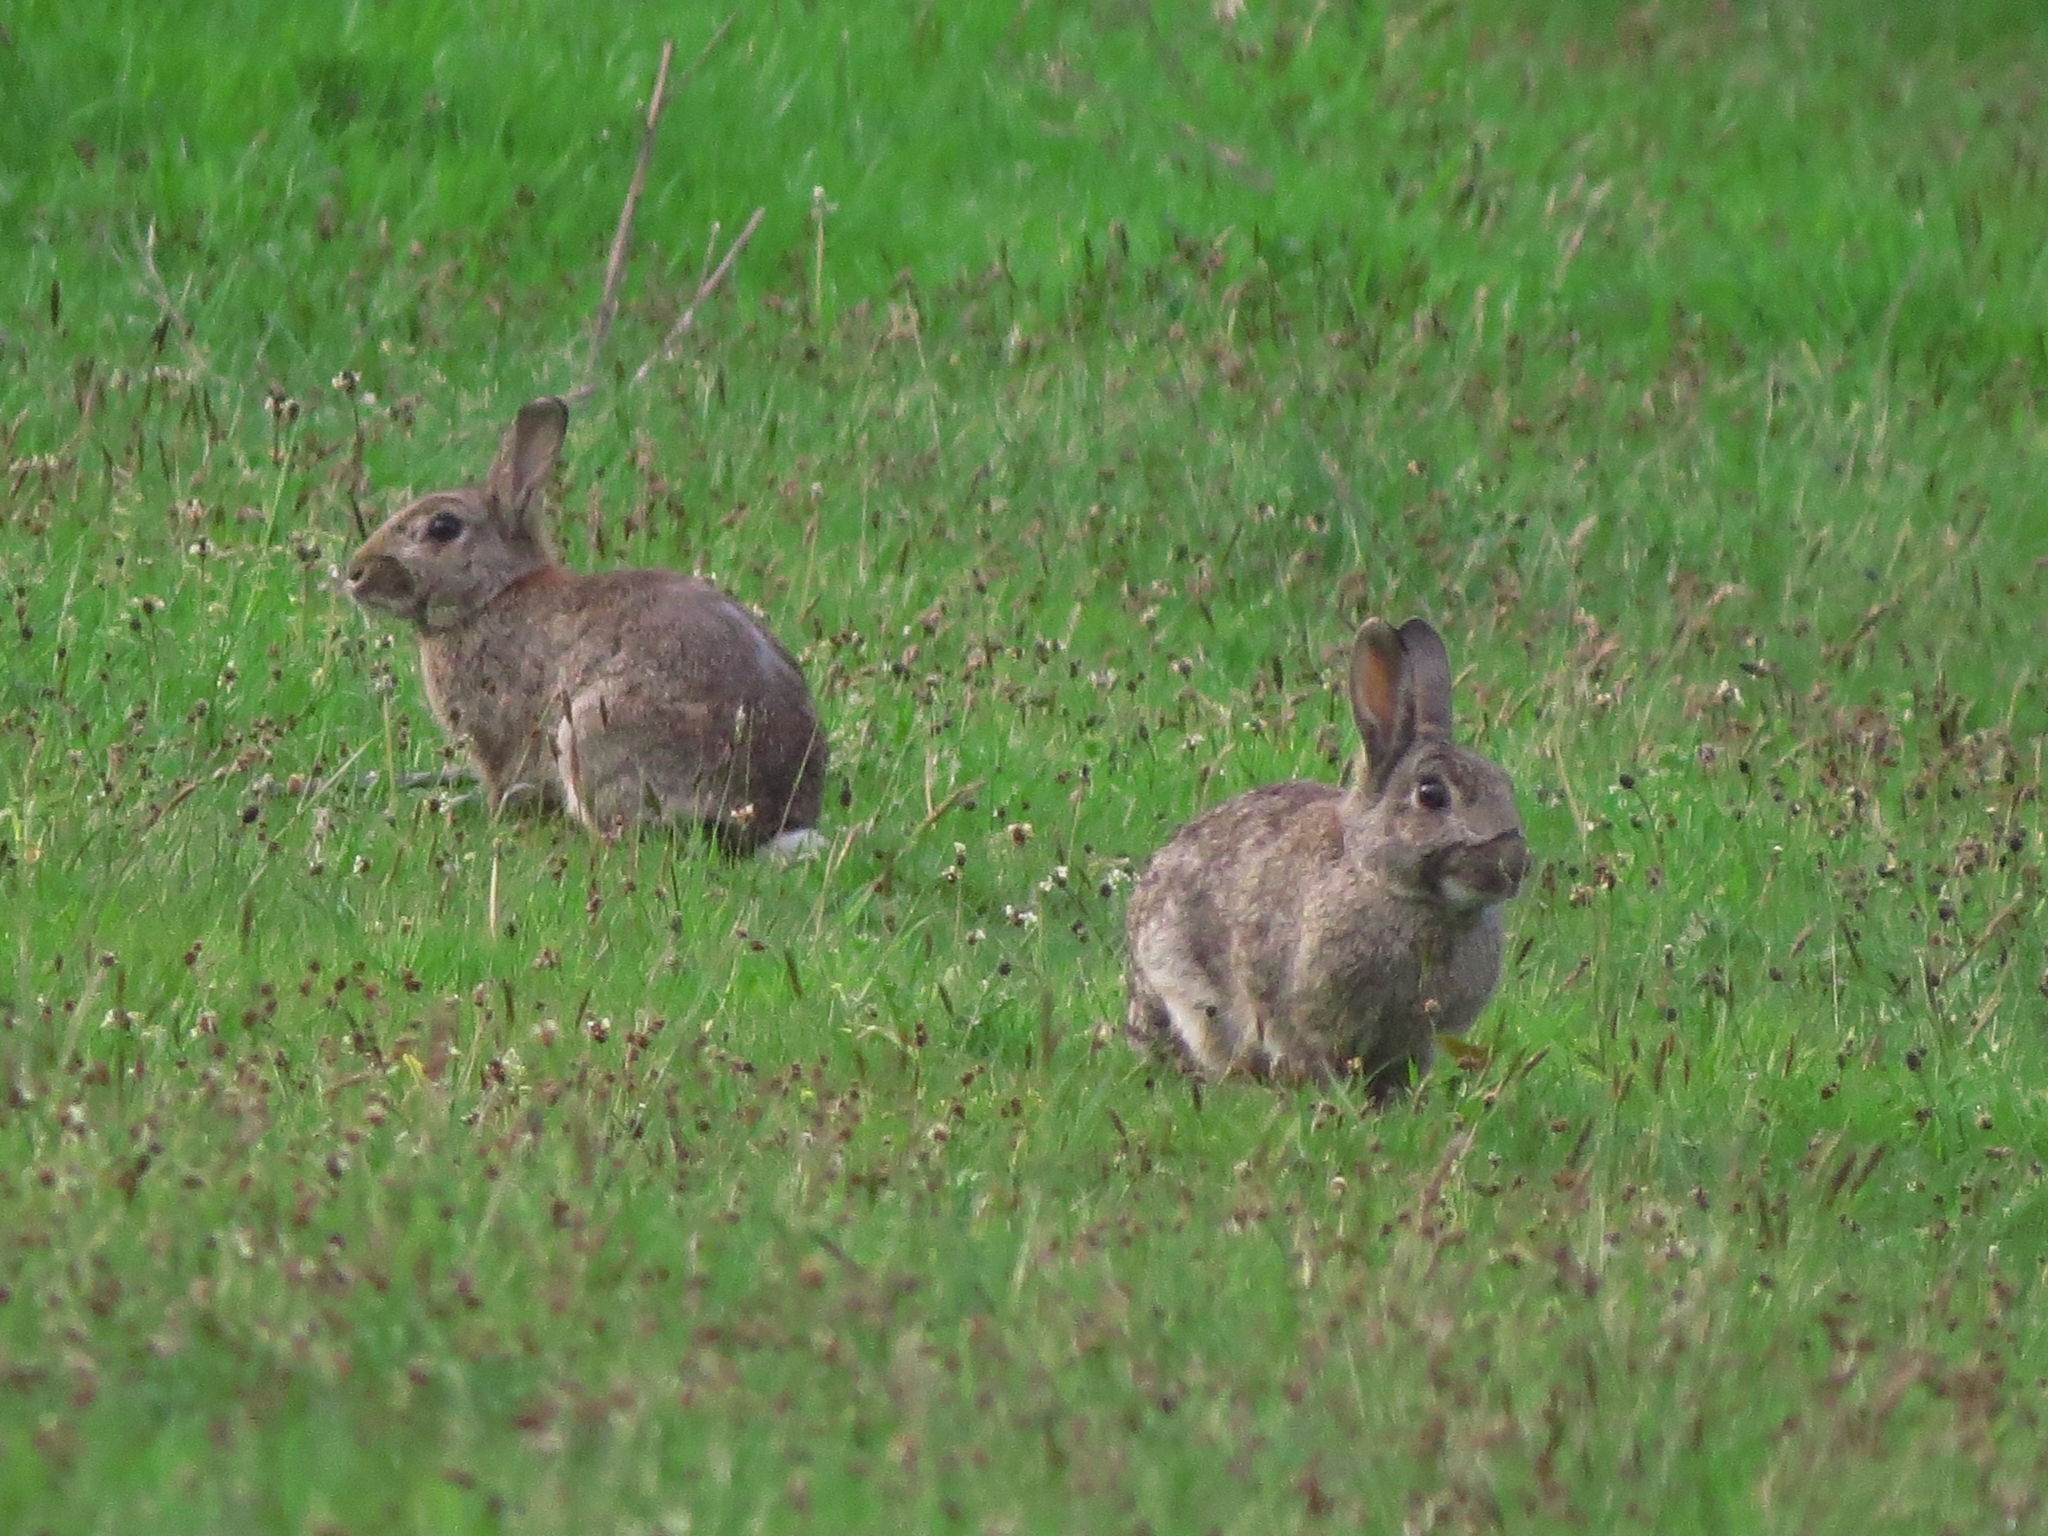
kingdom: Animalia
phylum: Chordata
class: Mammalia
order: Lagomorpha
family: Leporidae
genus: Oryctolagus
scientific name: Oryctolagus cuniculus
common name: European rabbit
